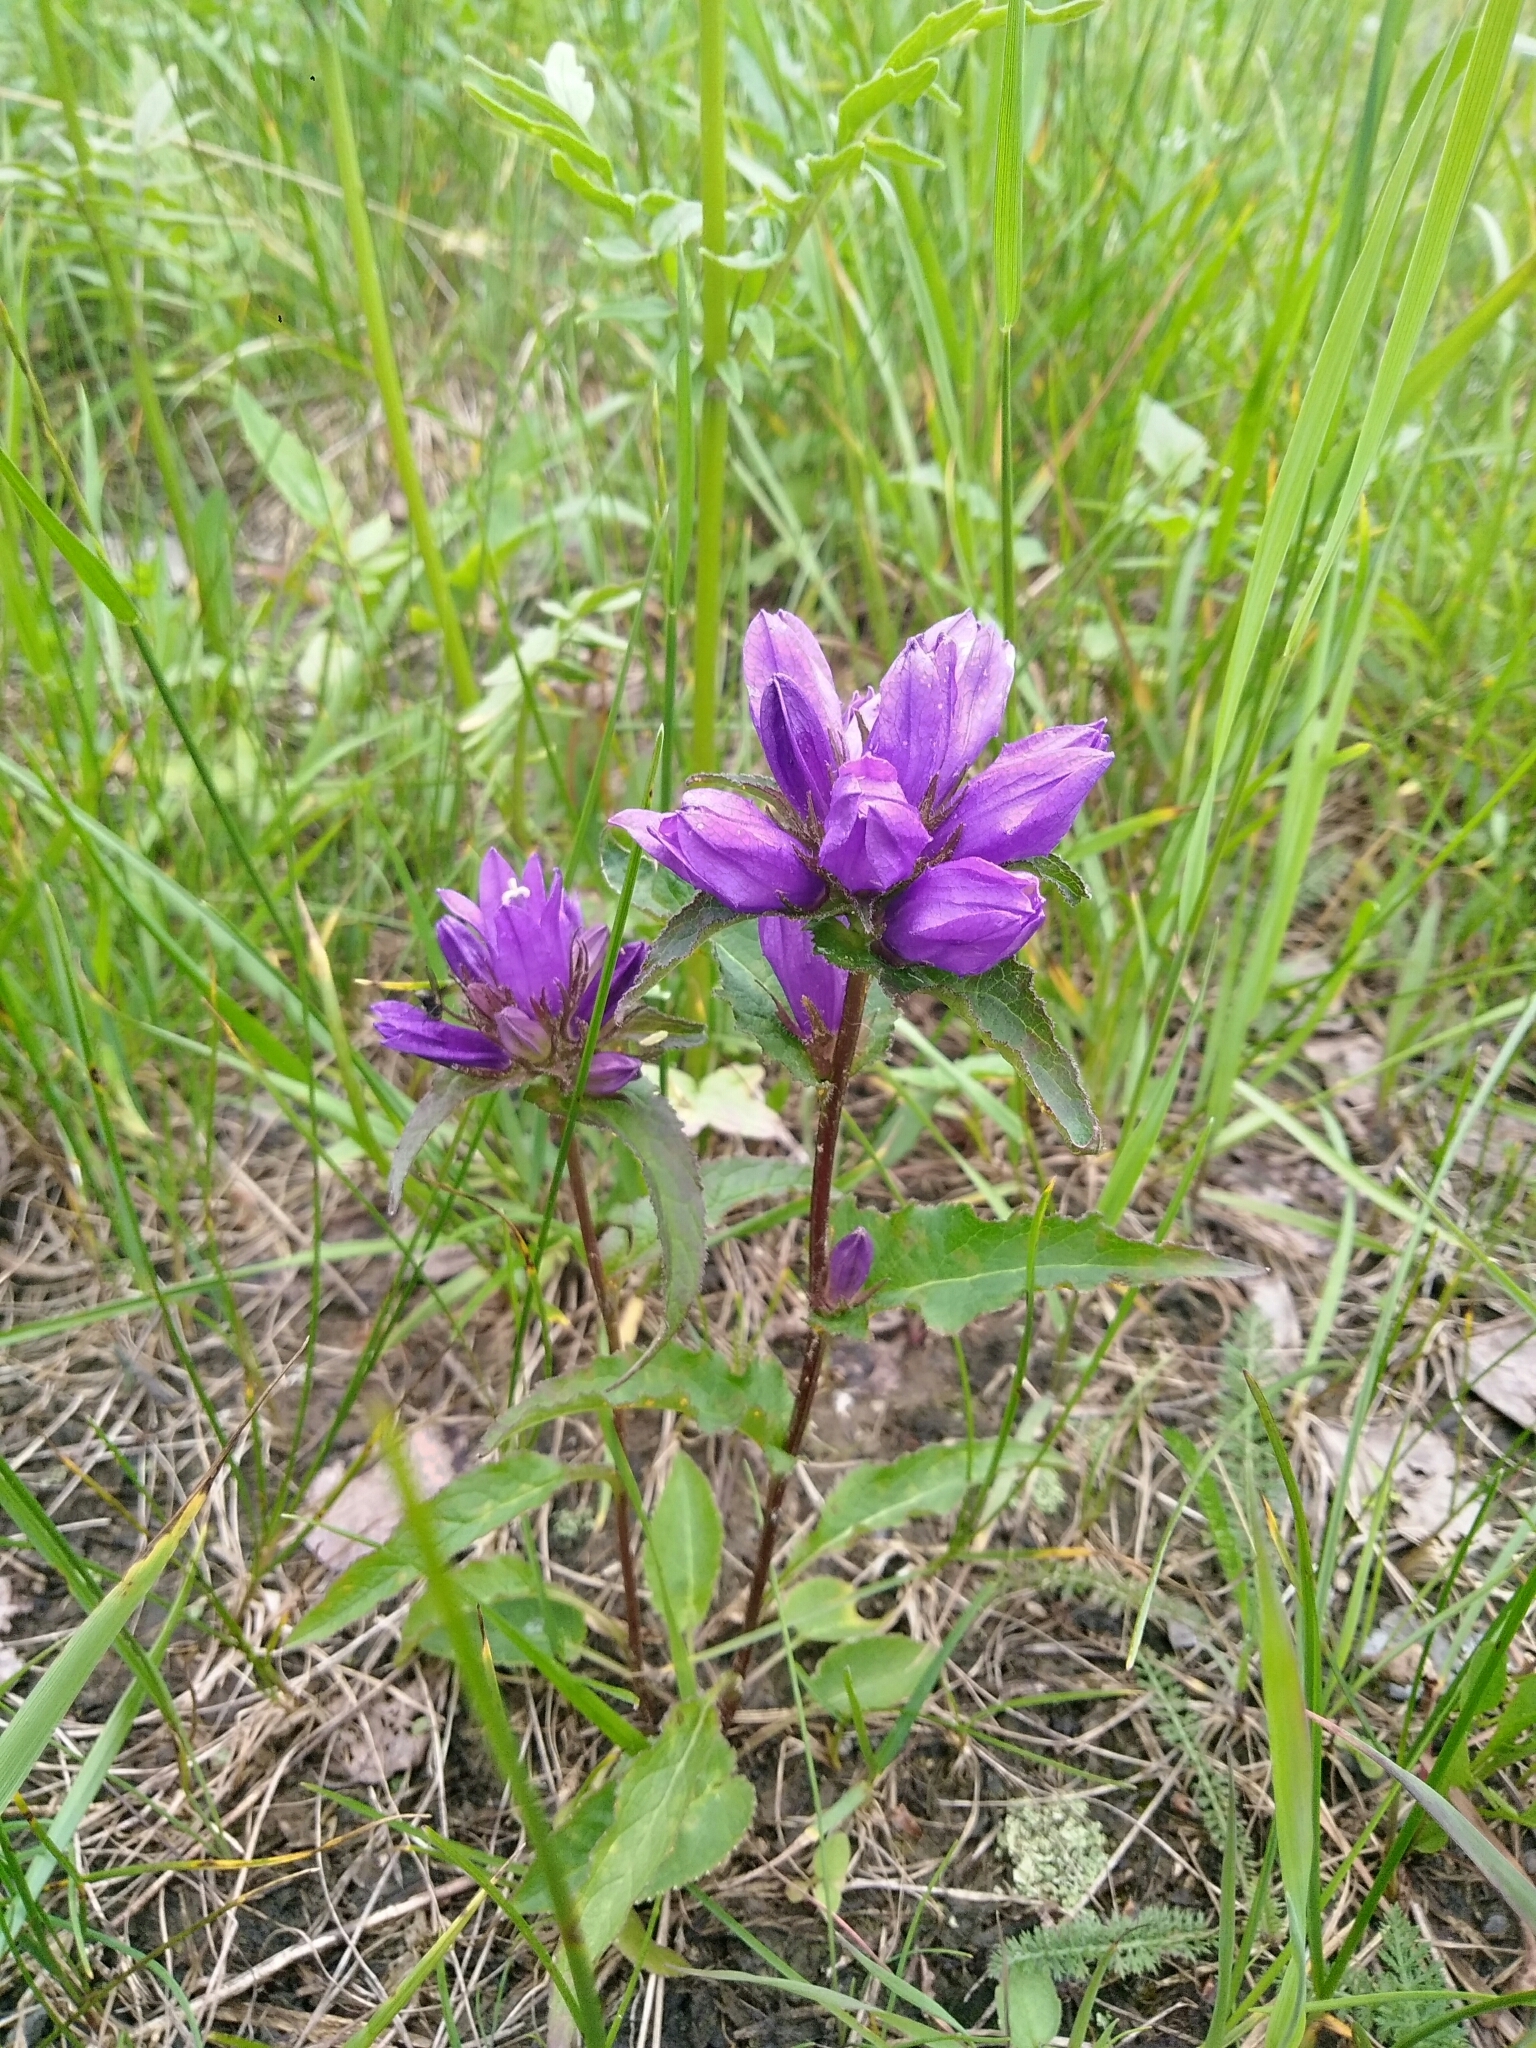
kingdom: Plantae
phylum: Tracheophyta
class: Magnoliopsida
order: Asterales
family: Campanulaceae
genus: Campanula
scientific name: Campanula glomerata
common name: Clustered bellflower
